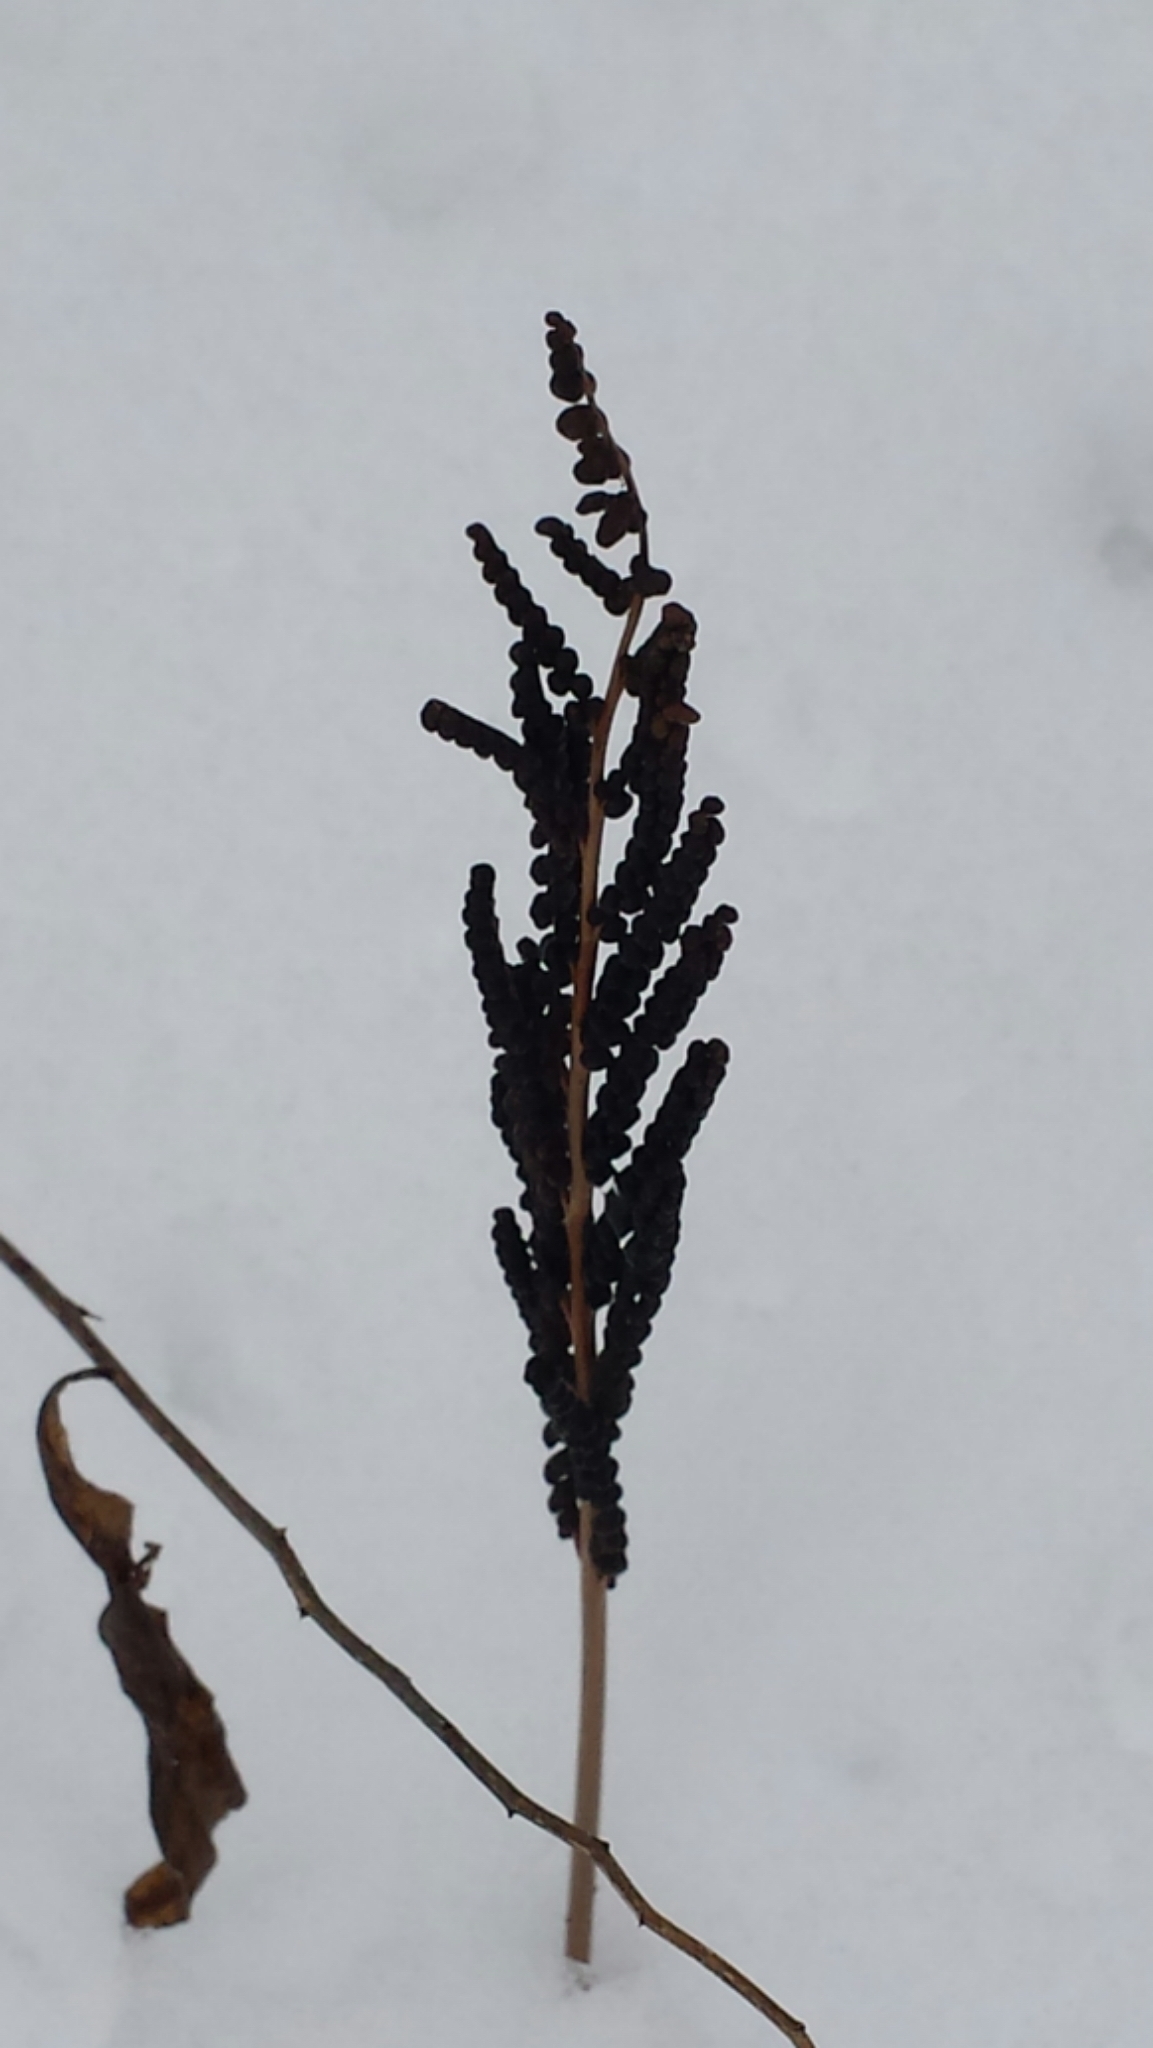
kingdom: Plantae
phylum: Tracheophyta
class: Polypodiopsida
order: Polypodiales
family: Onocleaceae
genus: Onoclea
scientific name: Onoclea sensibilis
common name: Sensitive fern
